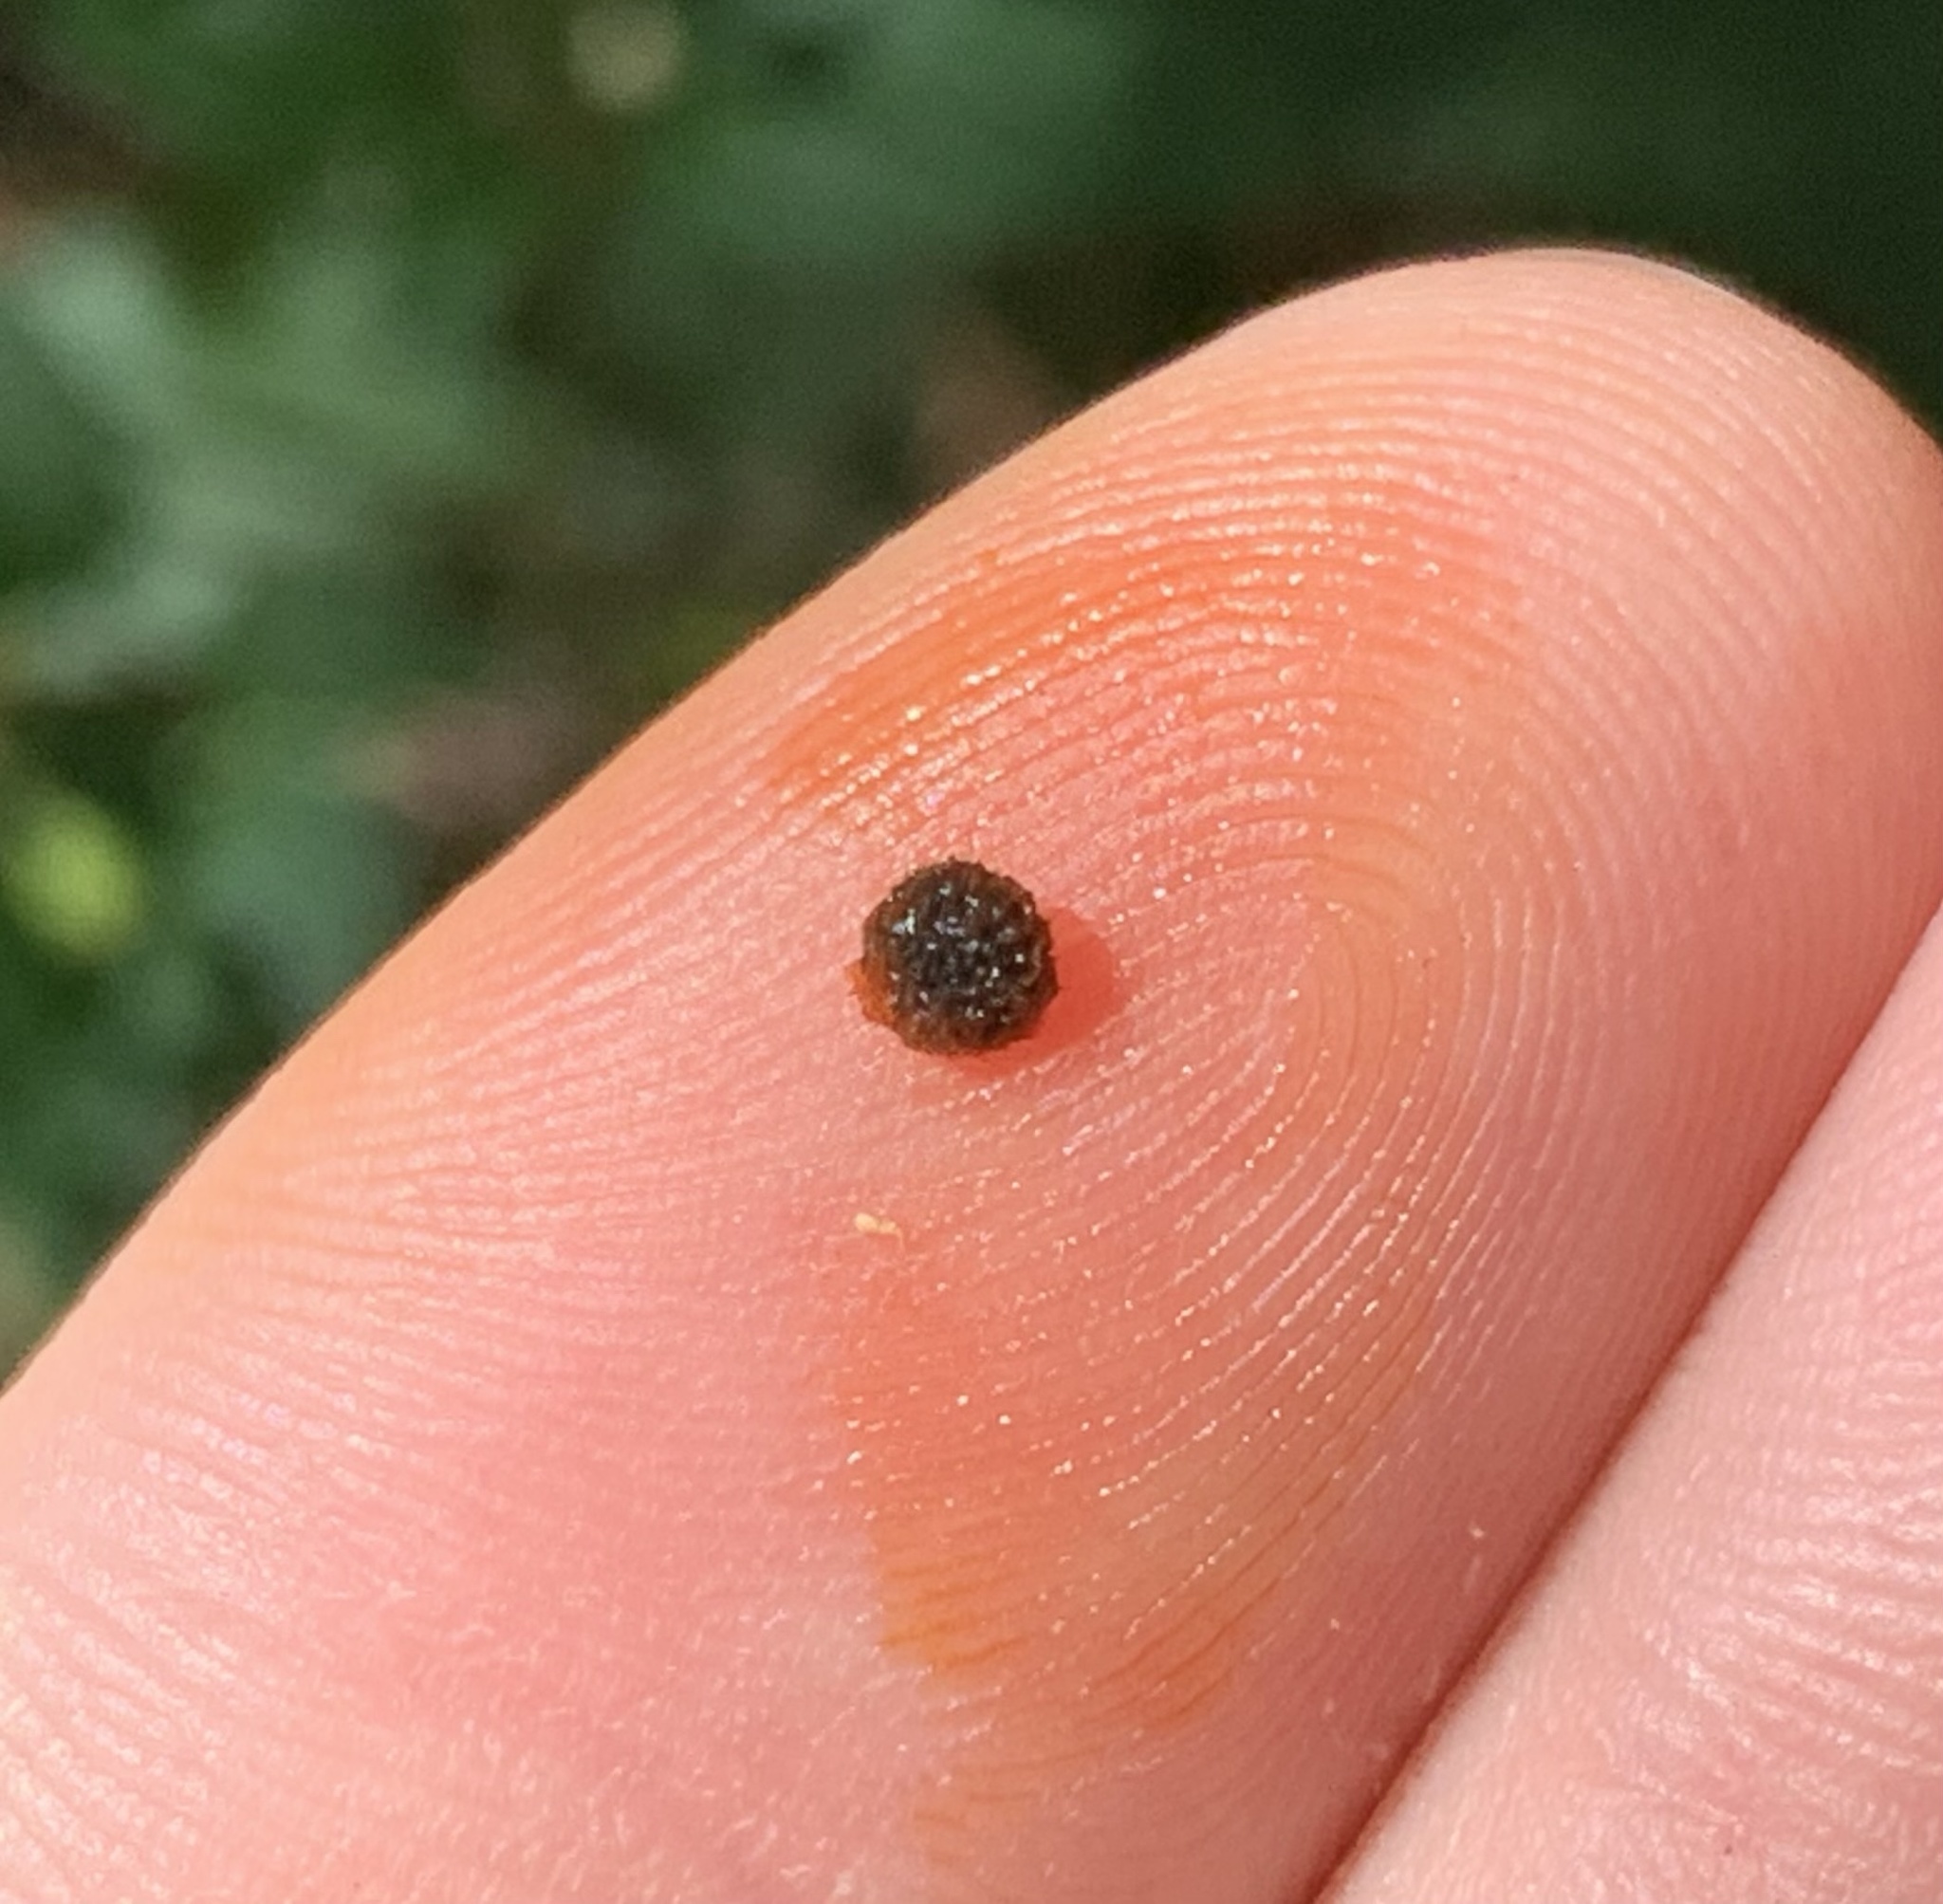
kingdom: Plantae
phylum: Tracheophyta
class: Magnoliopsida
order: Caryophyllales
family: Phytolaccaceae
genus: Rivina
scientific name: Rivina humilis
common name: Rougeplant
